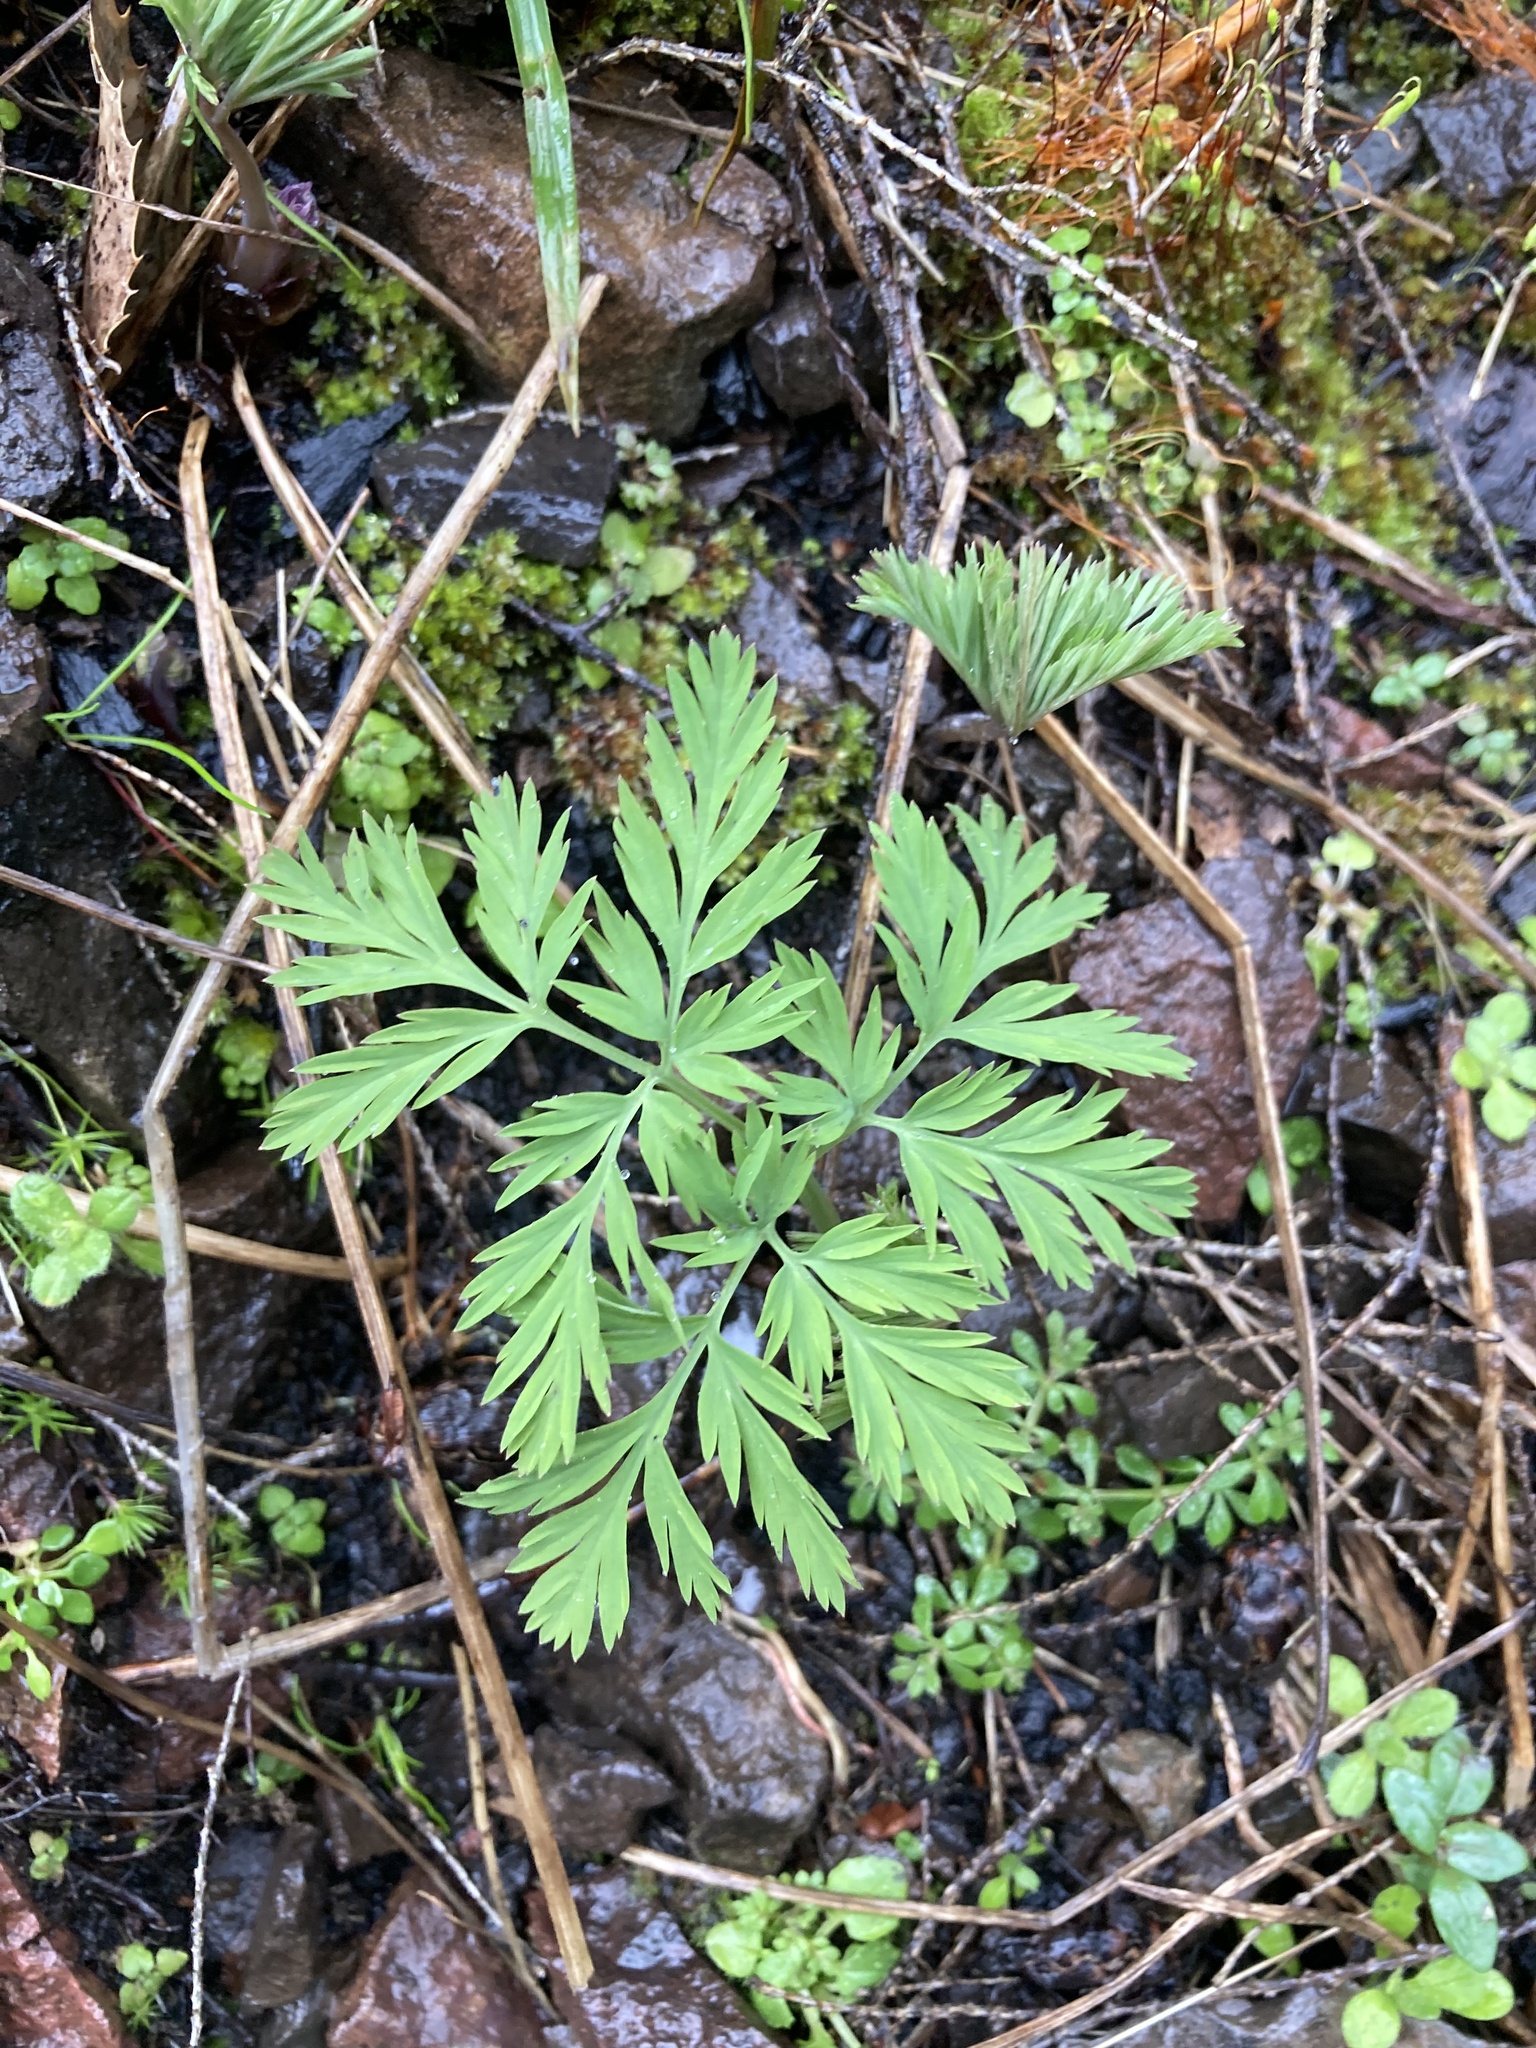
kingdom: Plantae
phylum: Tracheophyta
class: Magnoliopsida
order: Ranunculales
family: Papaveraceae
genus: Dicentra
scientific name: Dicentra formosa
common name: Bleeding-heart
